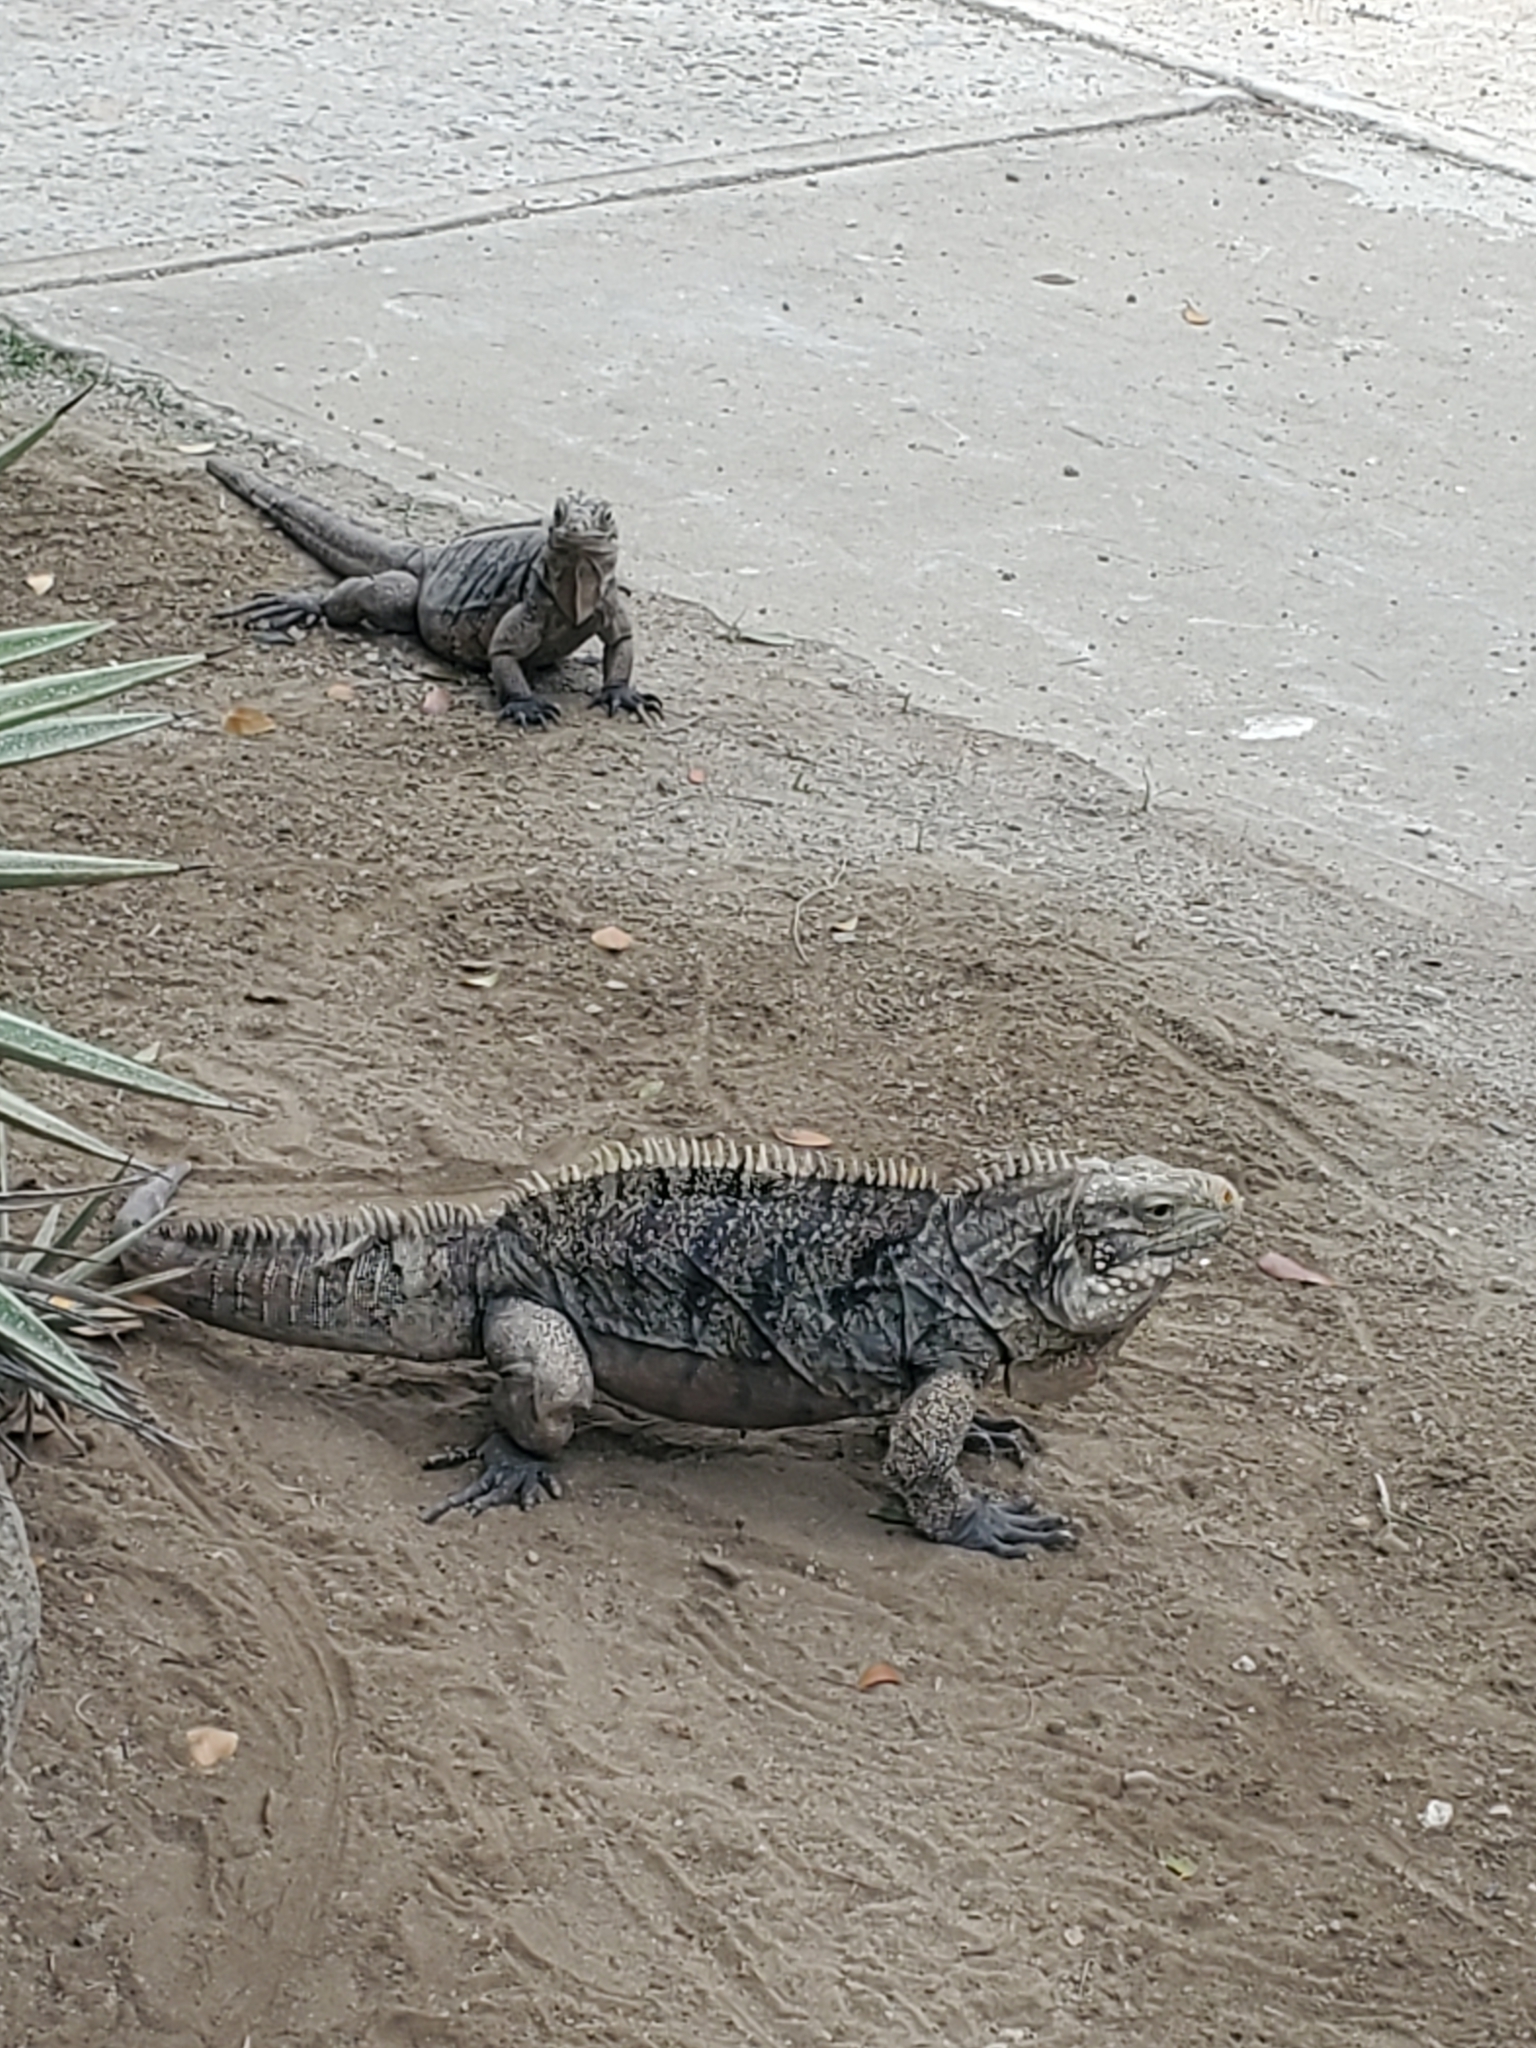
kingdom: Animalia
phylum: Chordata
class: Squamata
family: Iguanidae
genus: Cyclura
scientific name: Cyclura nubila
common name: Cayman islands ground iguana
